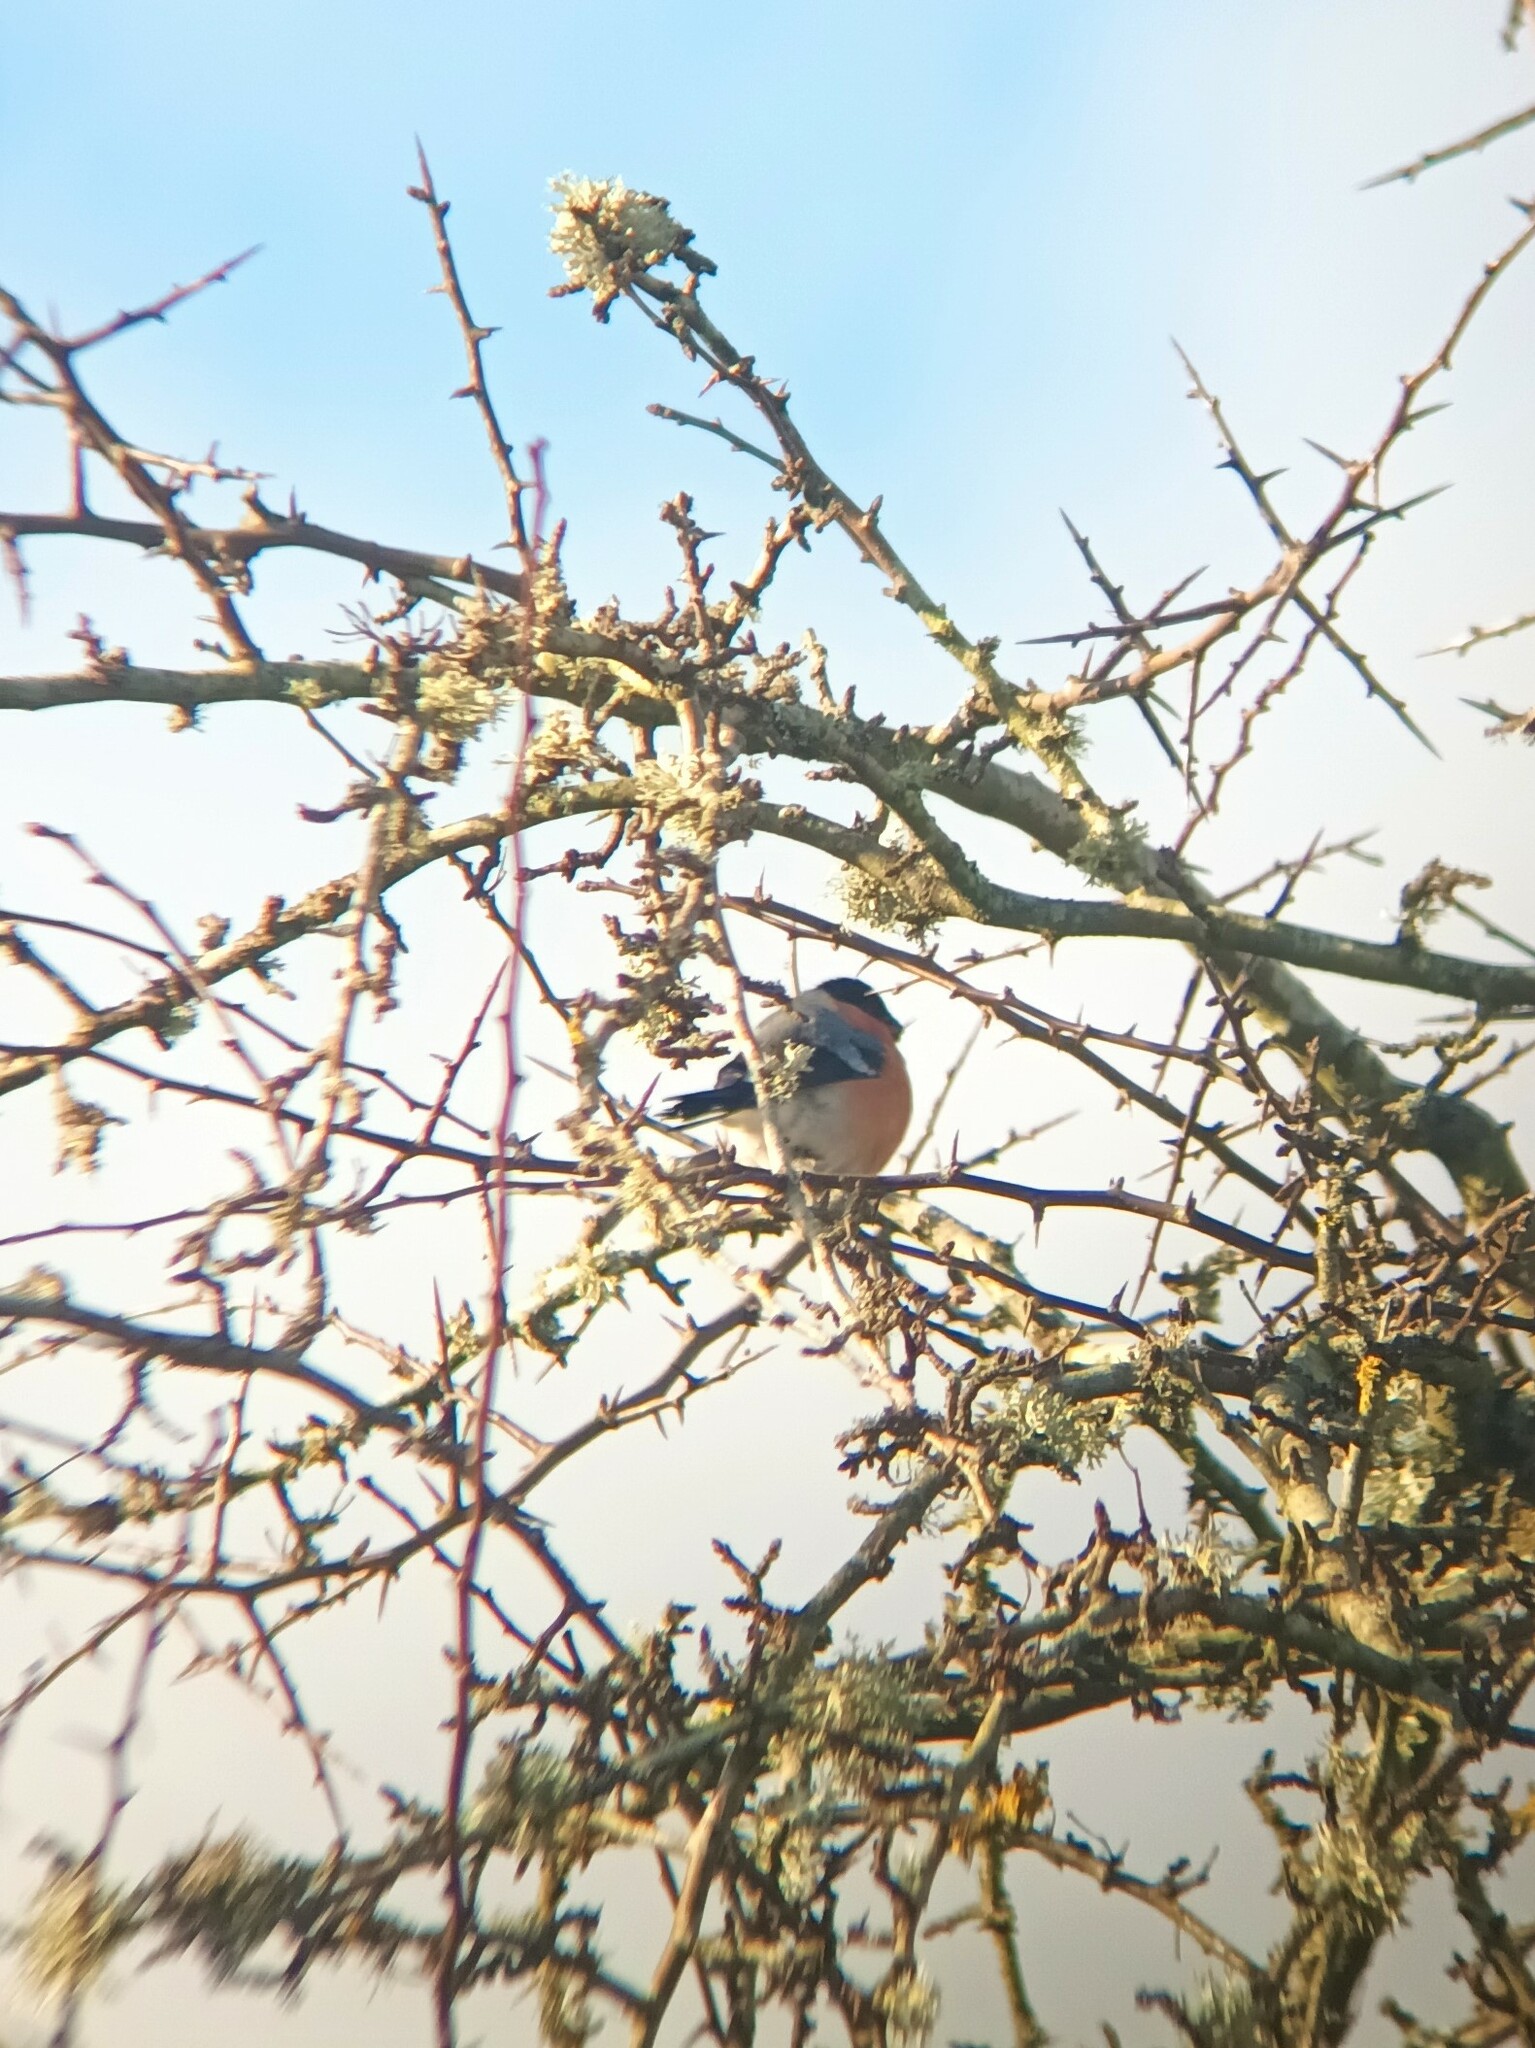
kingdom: Animalia
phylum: Chordata
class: Aves
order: Passeriformes
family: Fringillidae
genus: Pyrrhula
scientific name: Pyrrhula pyrrhula
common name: Eurasian bullfinch
